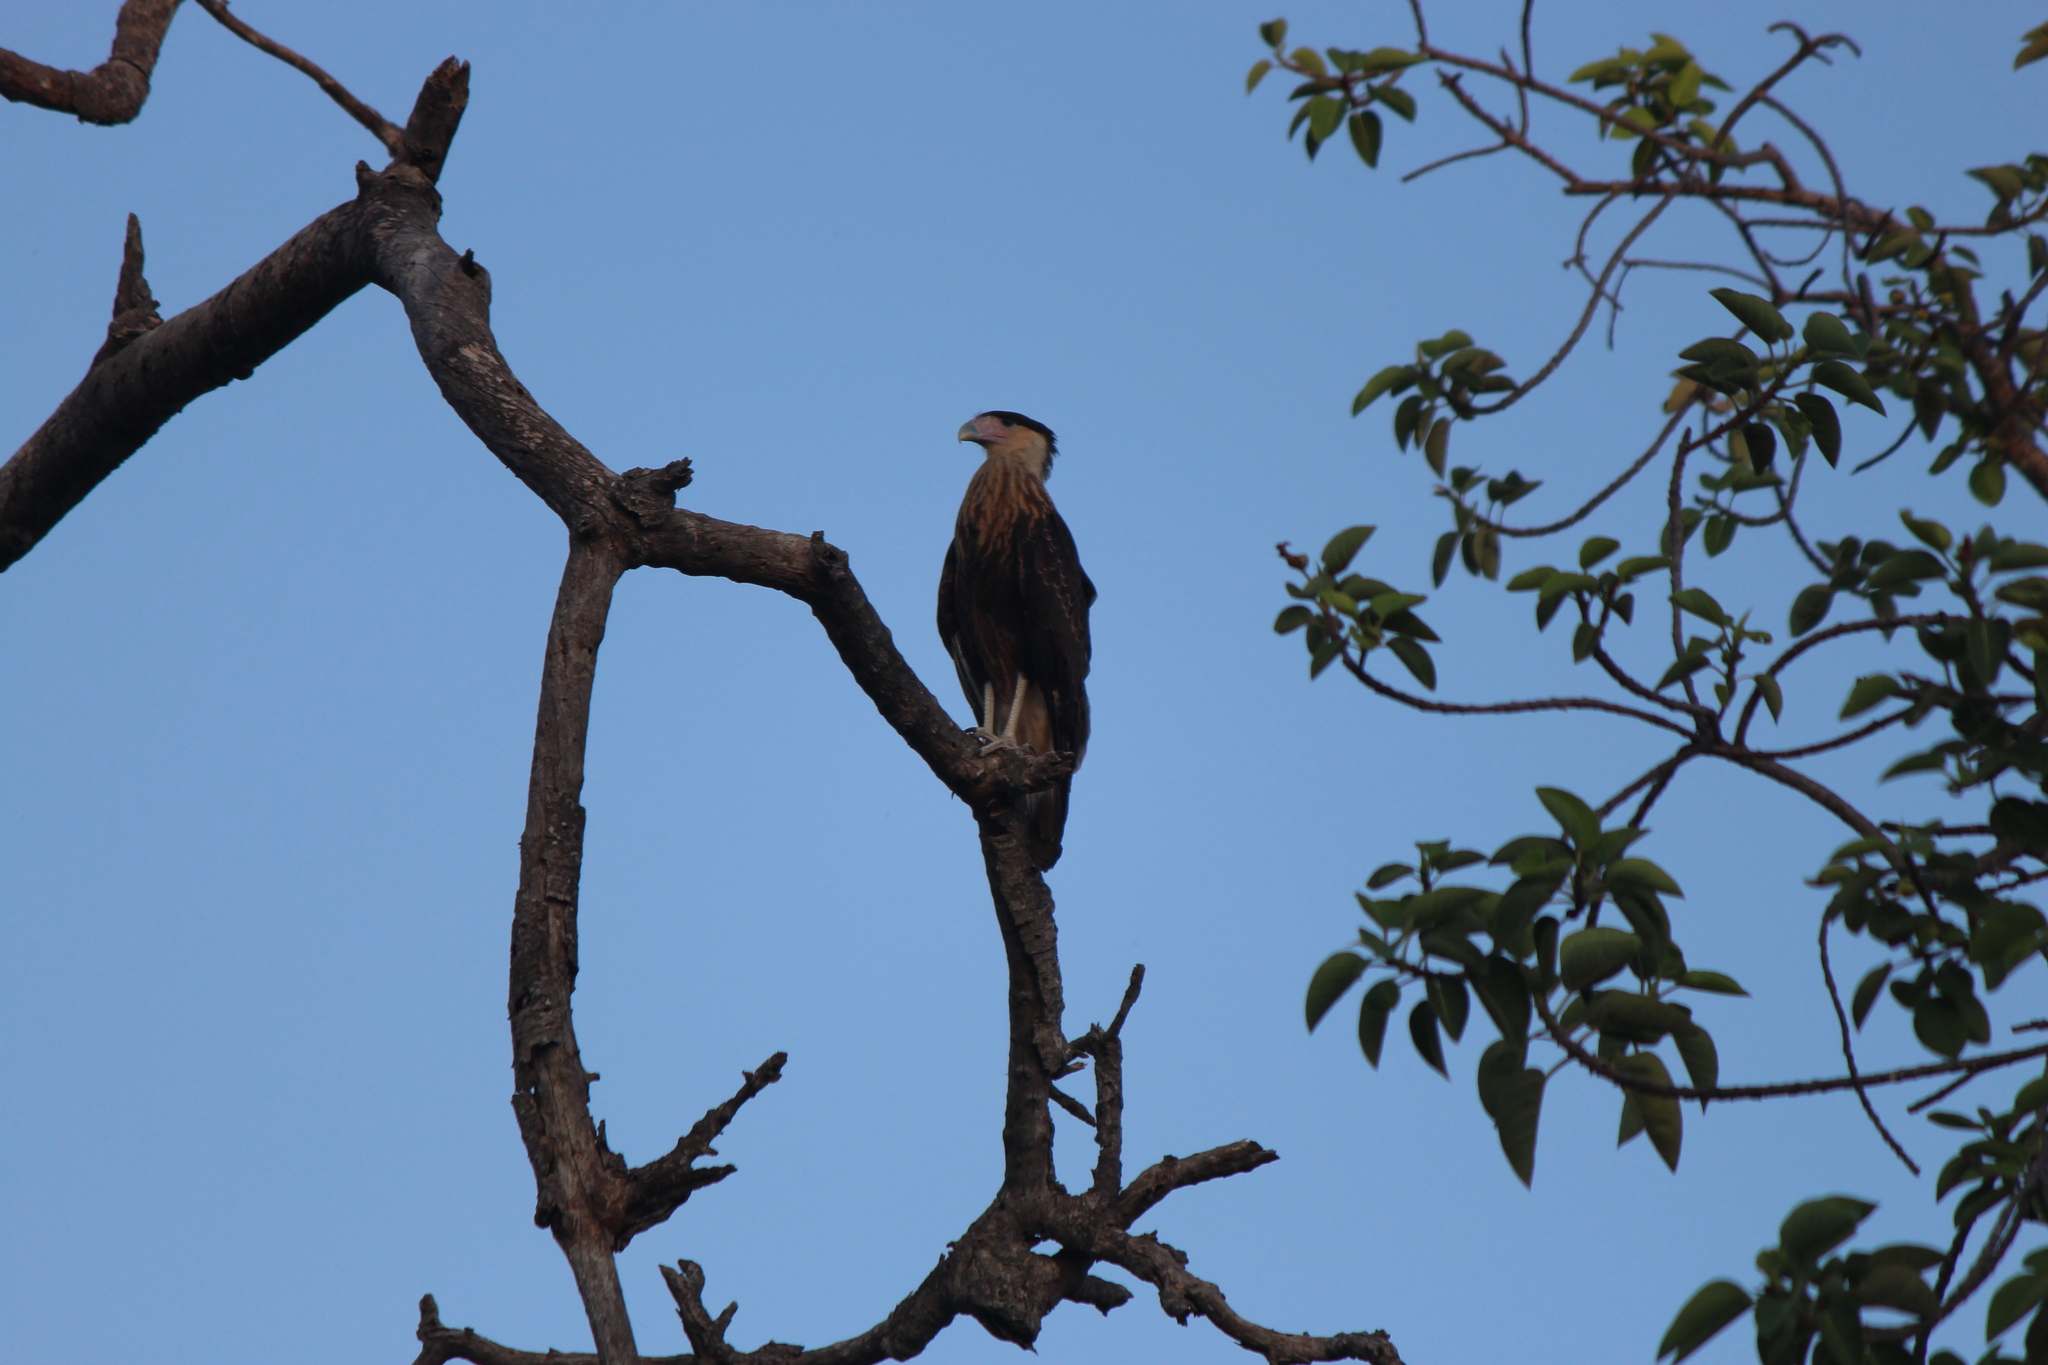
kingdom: Animalia
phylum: Chordata
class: Aves
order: Falconiformes
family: Falconidae
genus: Caracara
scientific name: Caracara plancus
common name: Southern caracara
